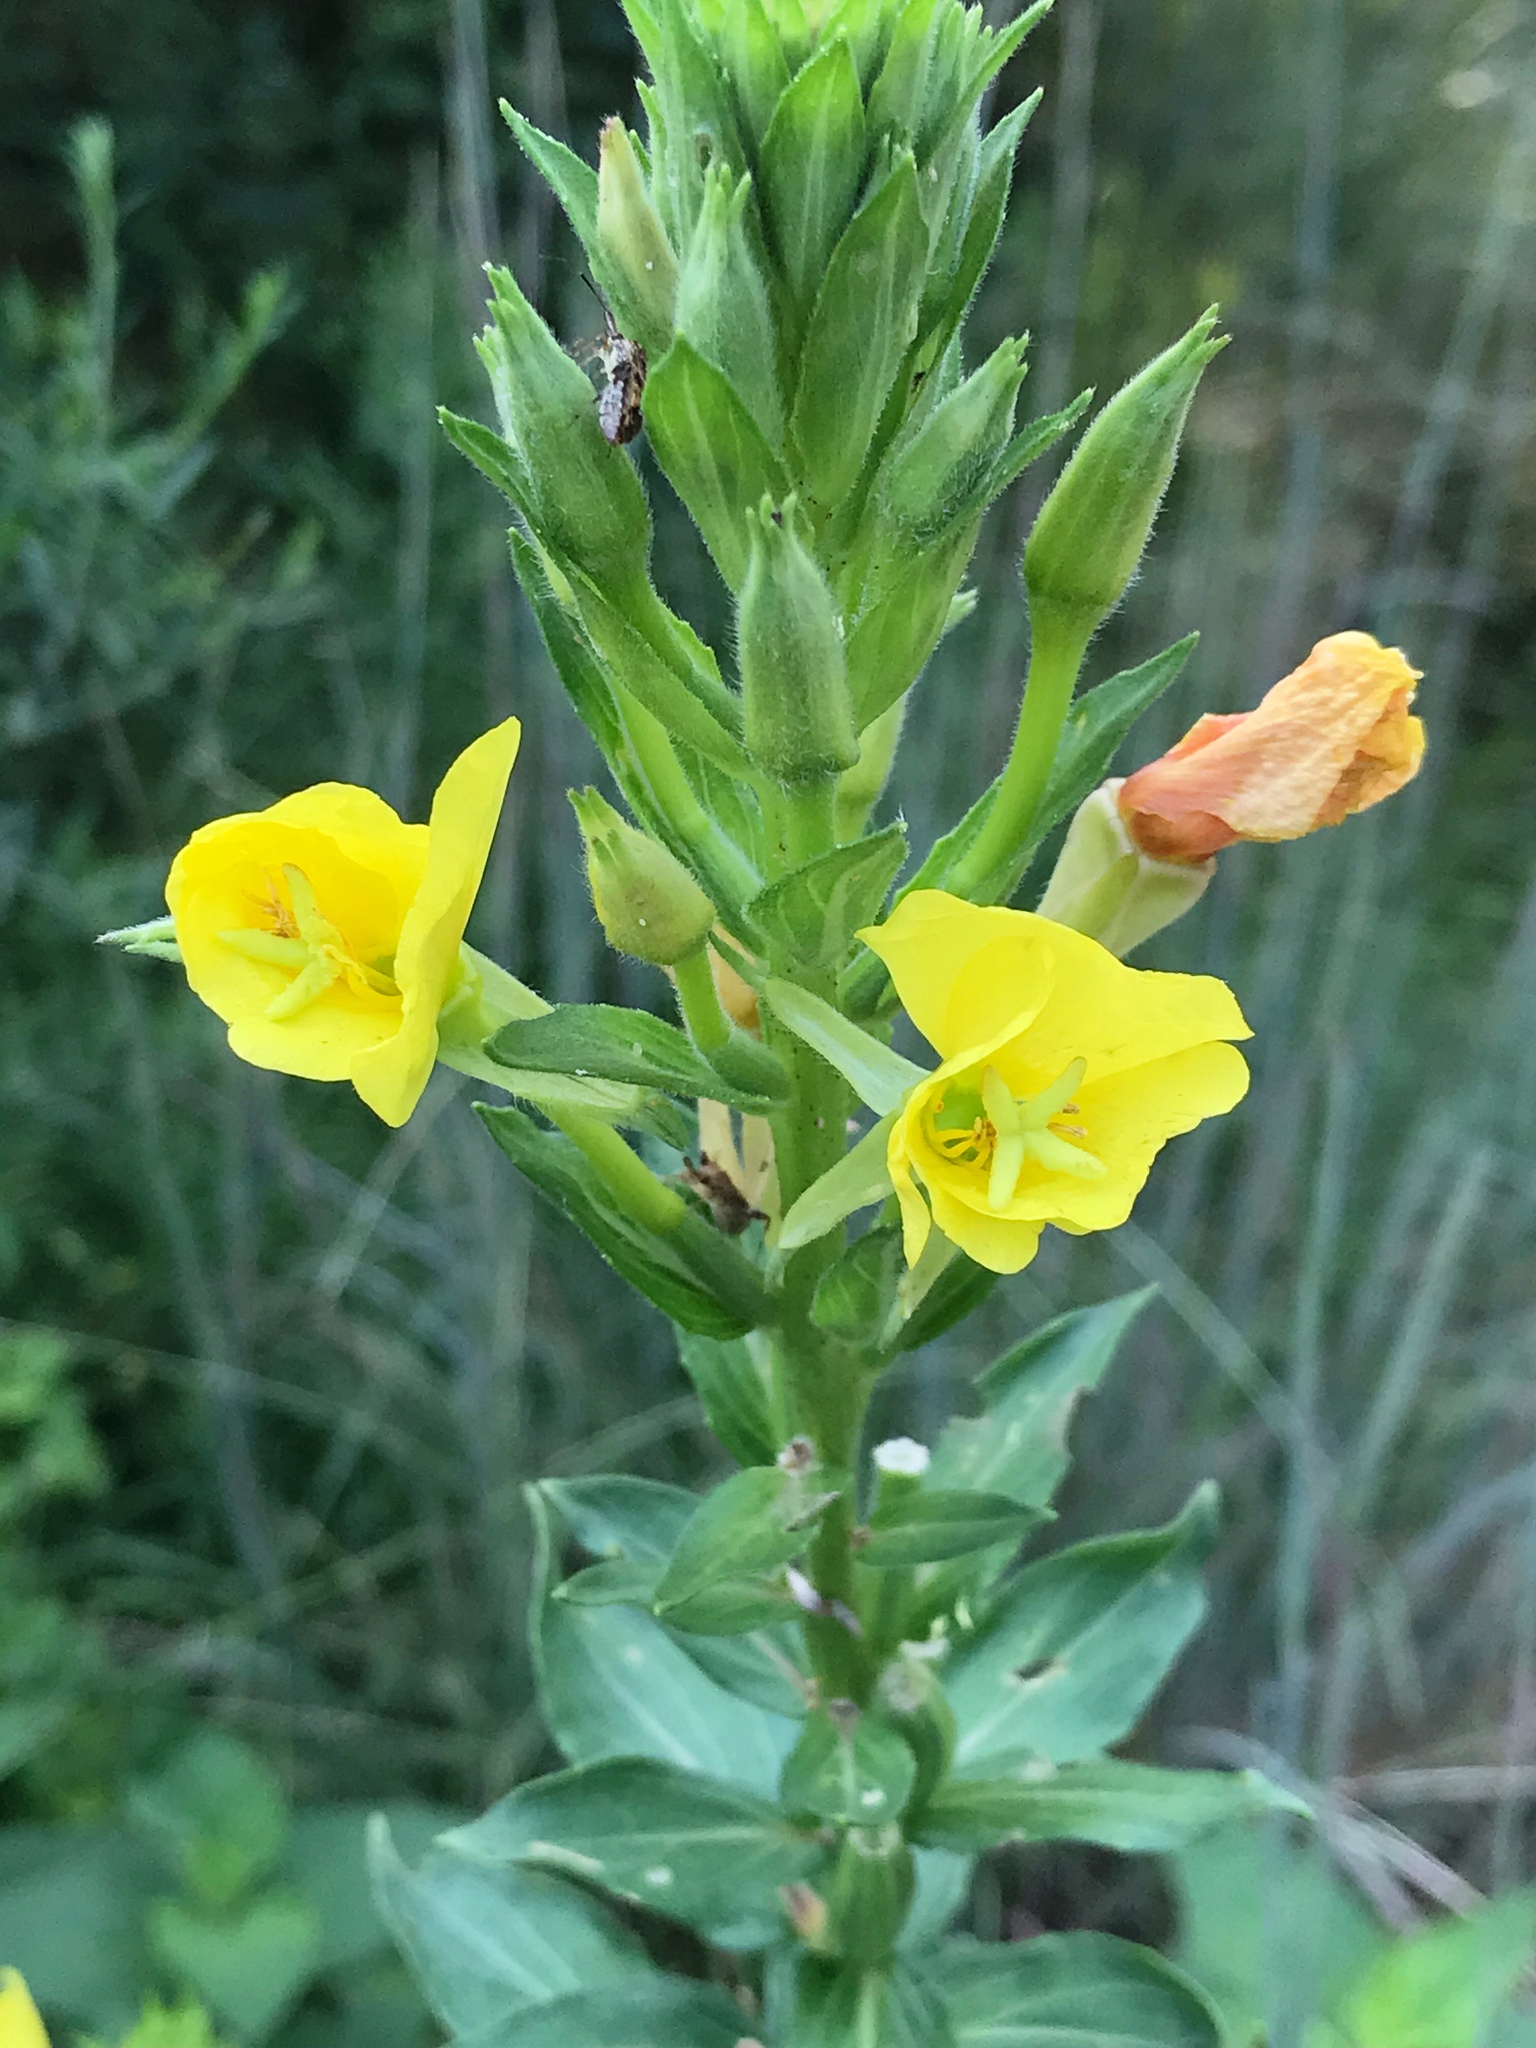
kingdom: Plantae
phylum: Tracheophyta
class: Magnoliopsida
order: Myrtales
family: Onagraceae
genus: Oenothera
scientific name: Oenothera biennis
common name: Common evening-primrose
